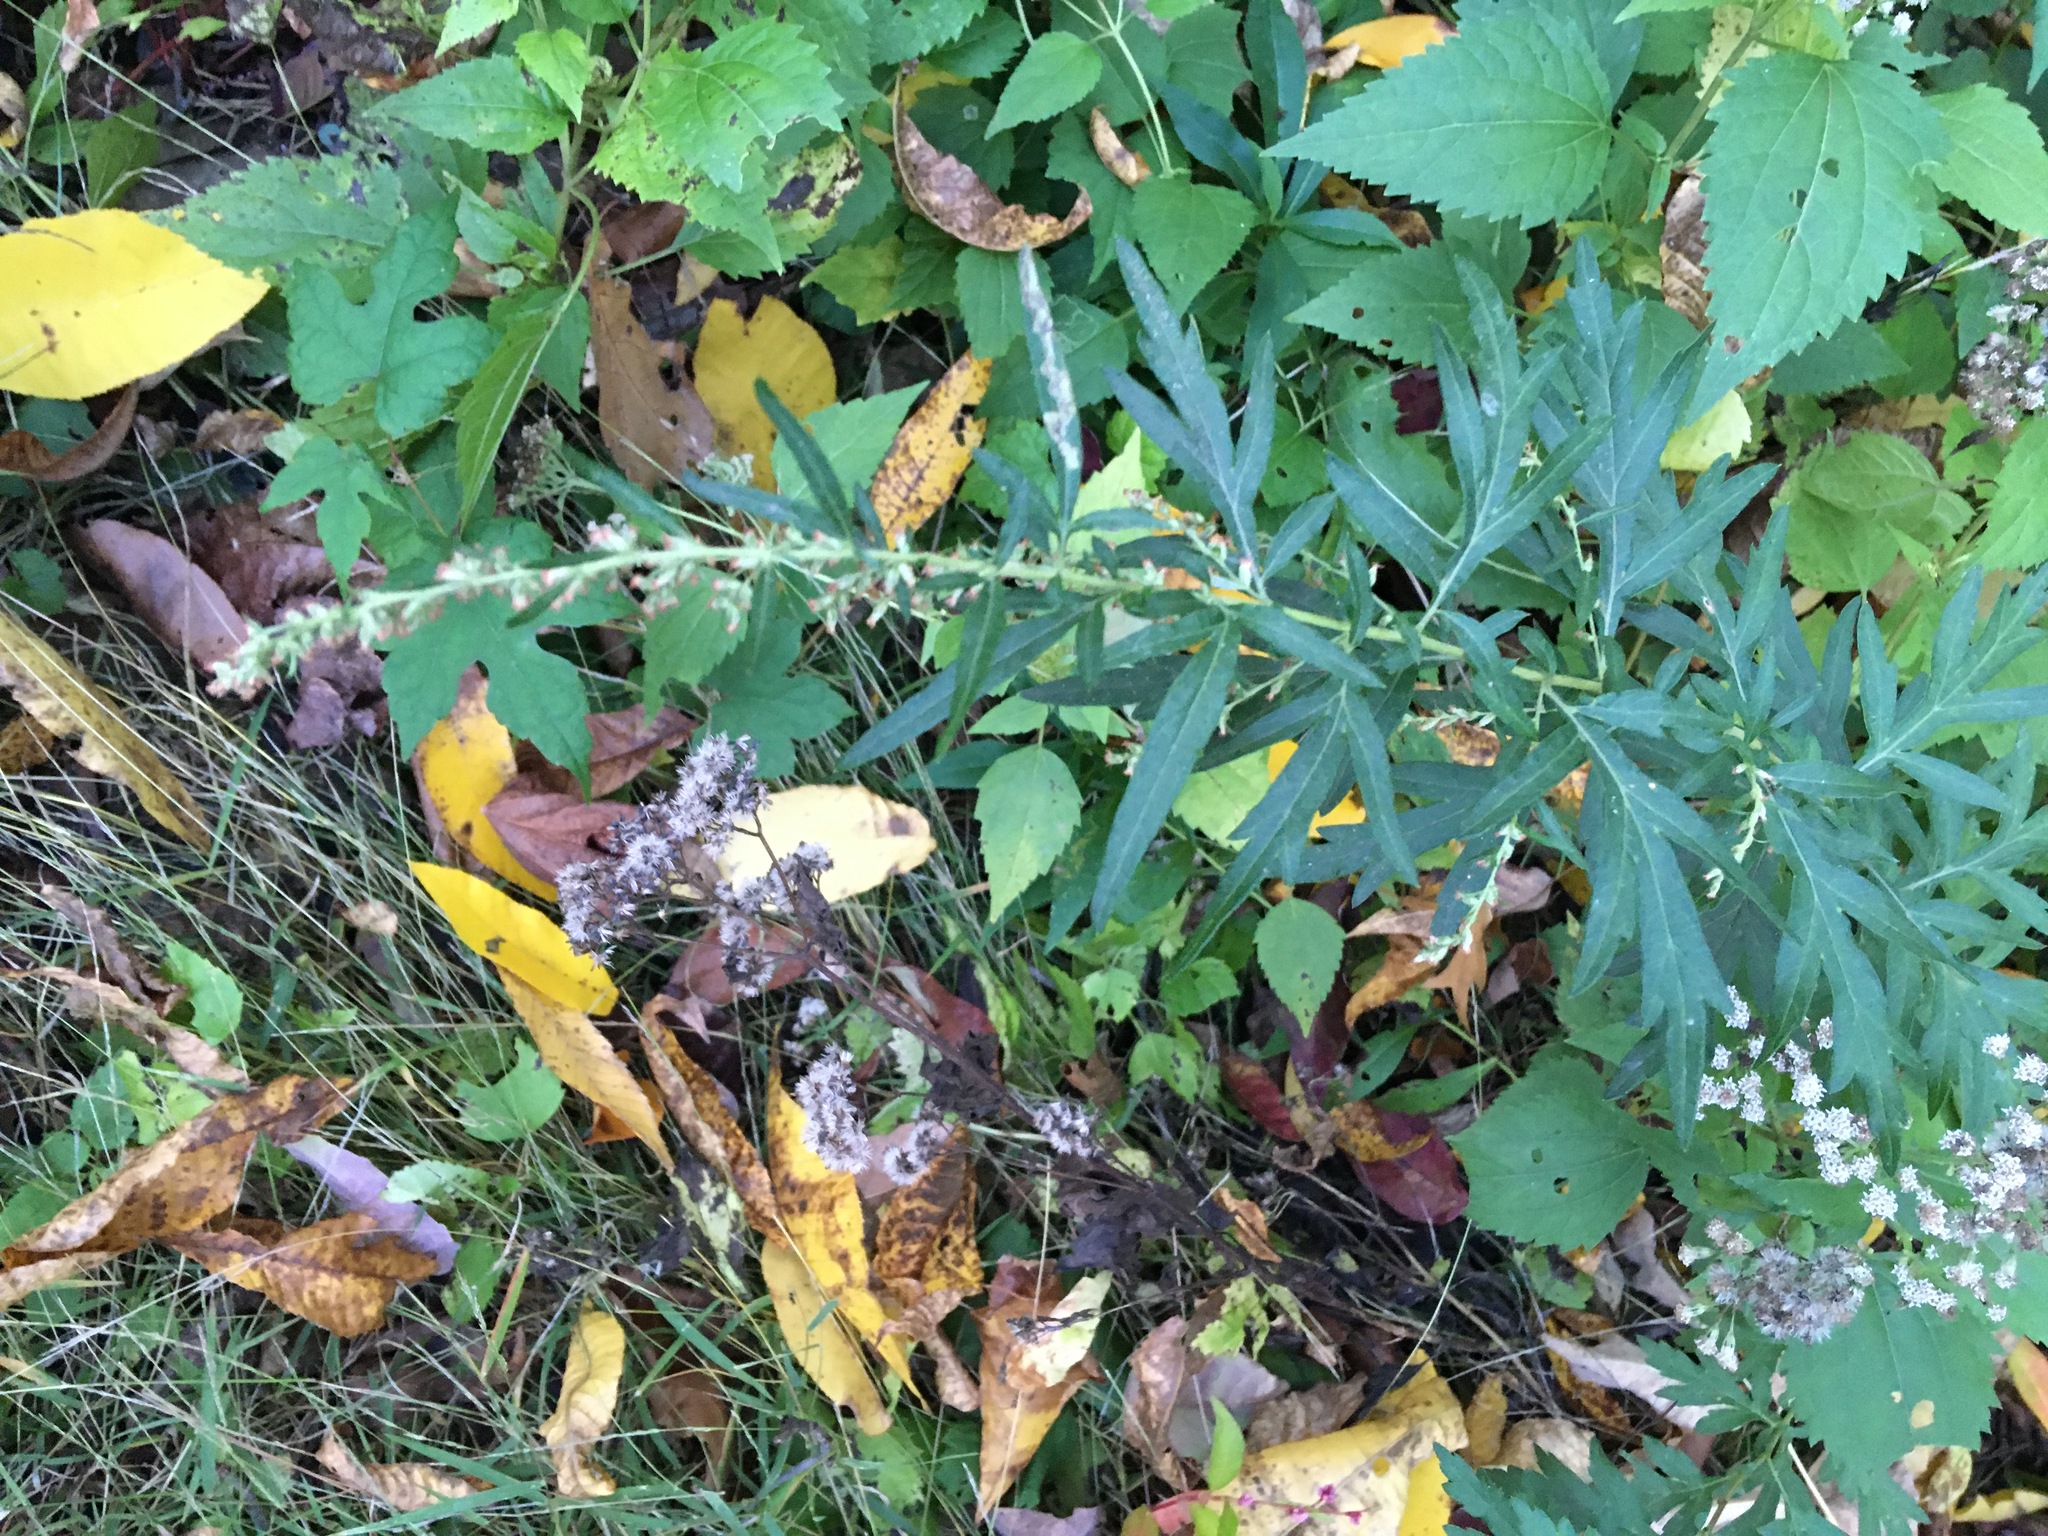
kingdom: Plantae
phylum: Tracheophyta
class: Magnoliopsida
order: Asterales
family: Asteraceae
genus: Artemisia
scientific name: Artemisia vulgaris
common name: Mugwort
